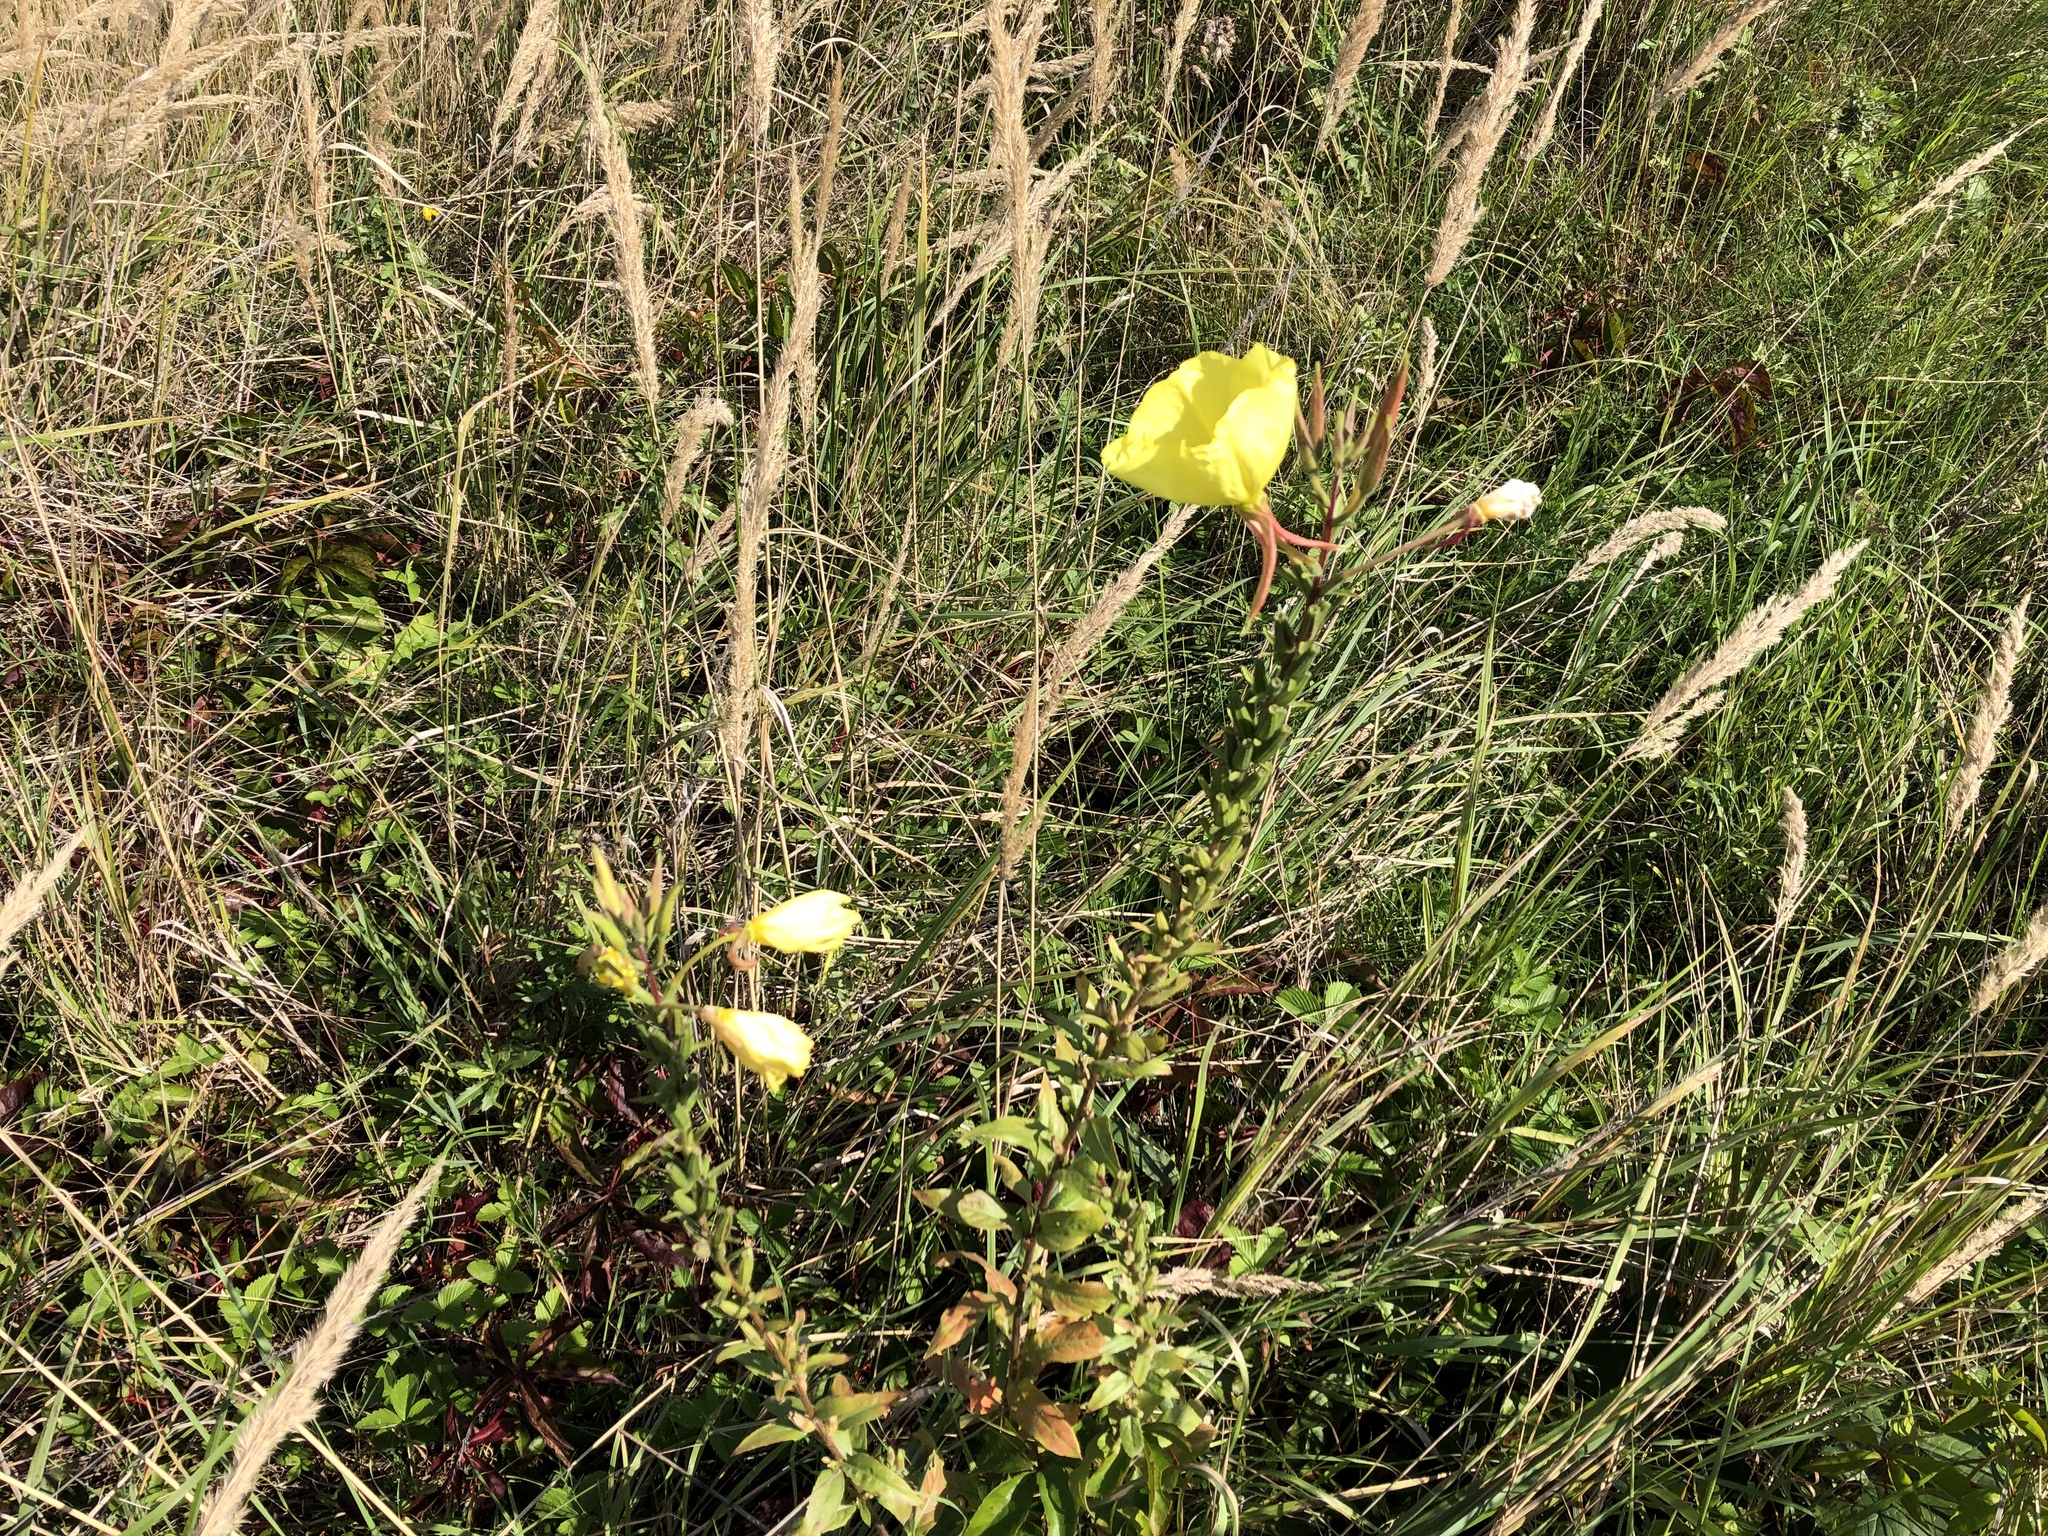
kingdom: Plantae
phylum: Tracheophyta
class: Magnoliopsida
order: Myrtales
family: Onagraceae
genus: Oenothera
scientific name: Oenothera glazioviana
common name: Large-flowered evening-primrose
